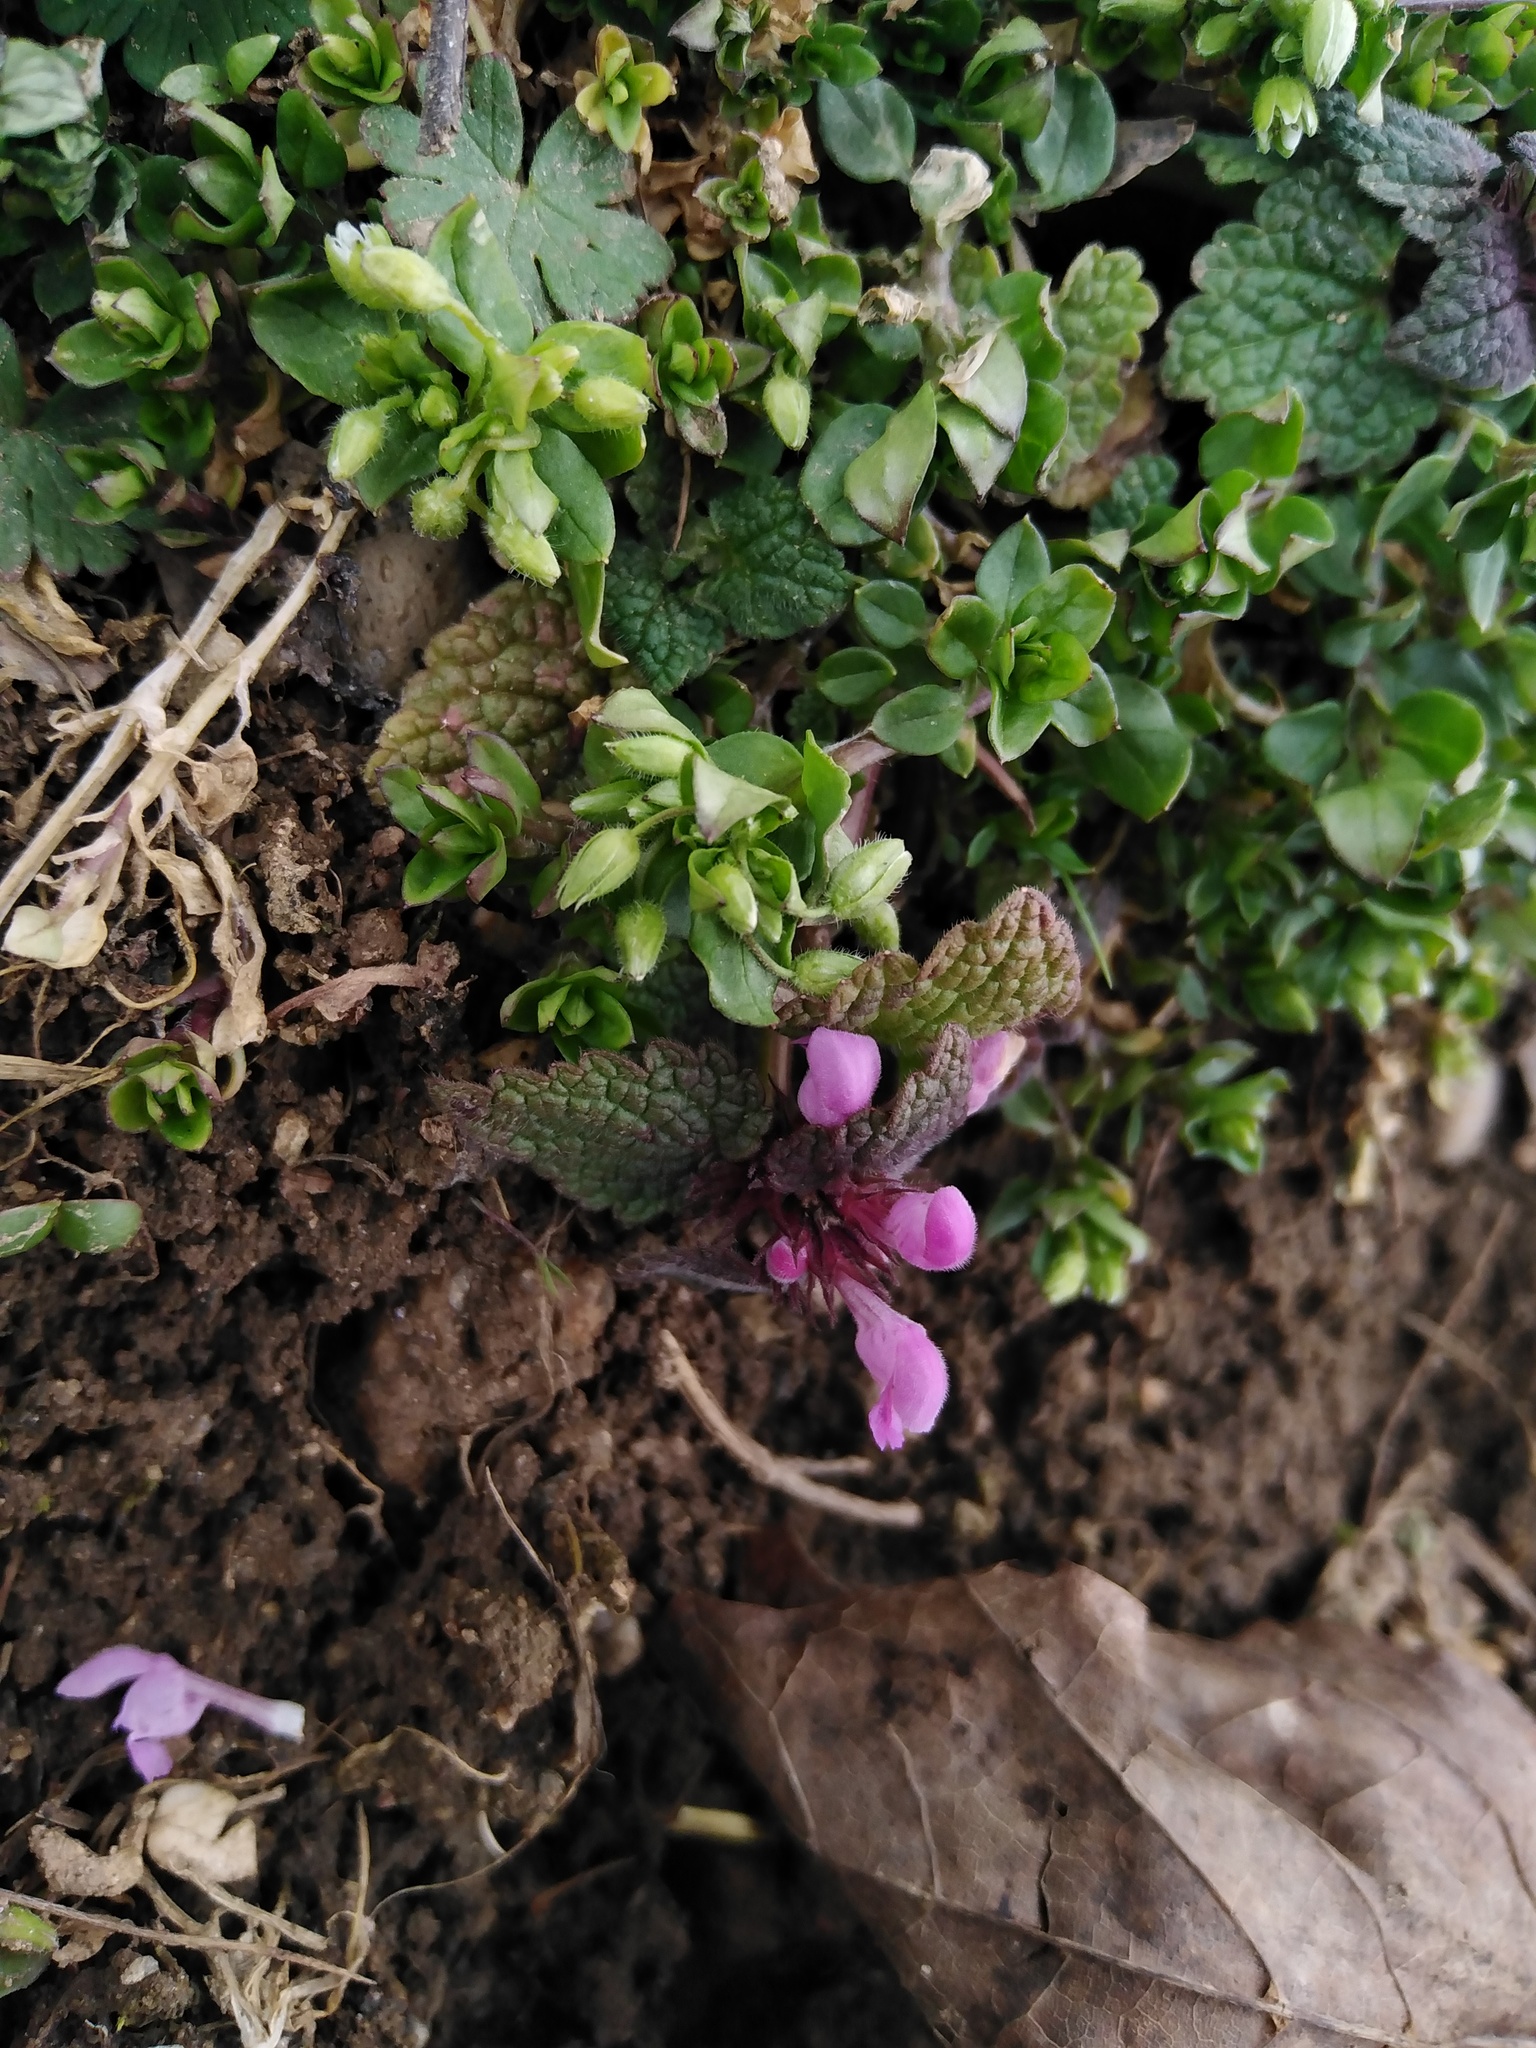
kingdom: Plantae
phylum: Tracheophyta
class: Magnoliopsida
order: Lamiales
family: Lamiaceae
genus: Lamium
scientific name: Lamium purpureum
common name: Red dead-nettle
